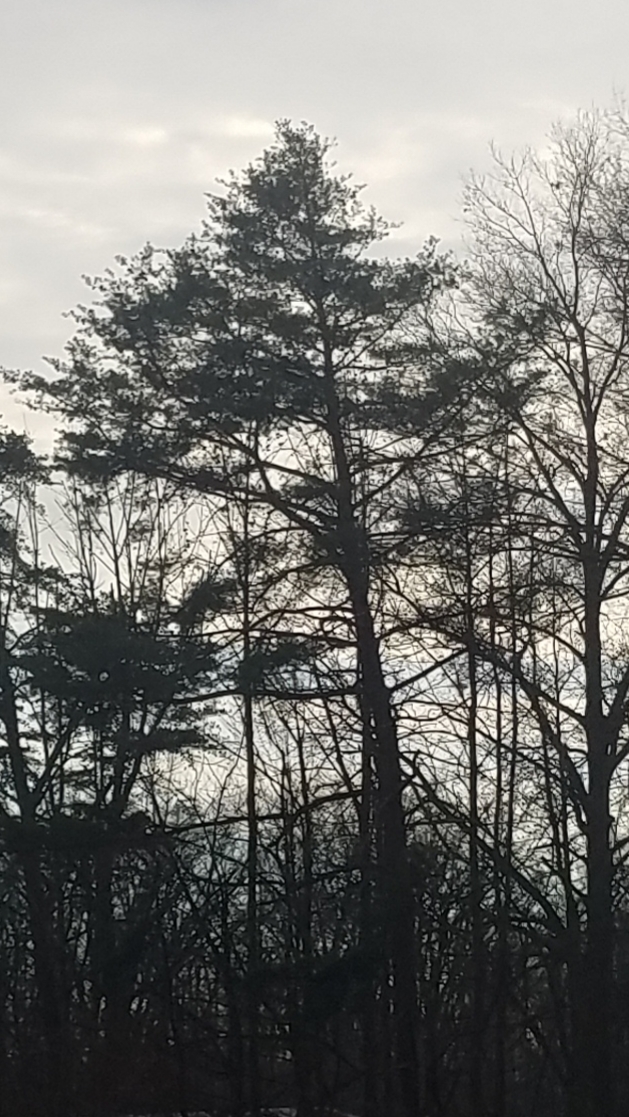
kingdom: Plantae
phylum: Tracheophyta
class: Pinopsida
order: Pinales
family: Pinaceae
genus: Pinus
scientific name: Pinus strobus
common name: Weymouth pine
